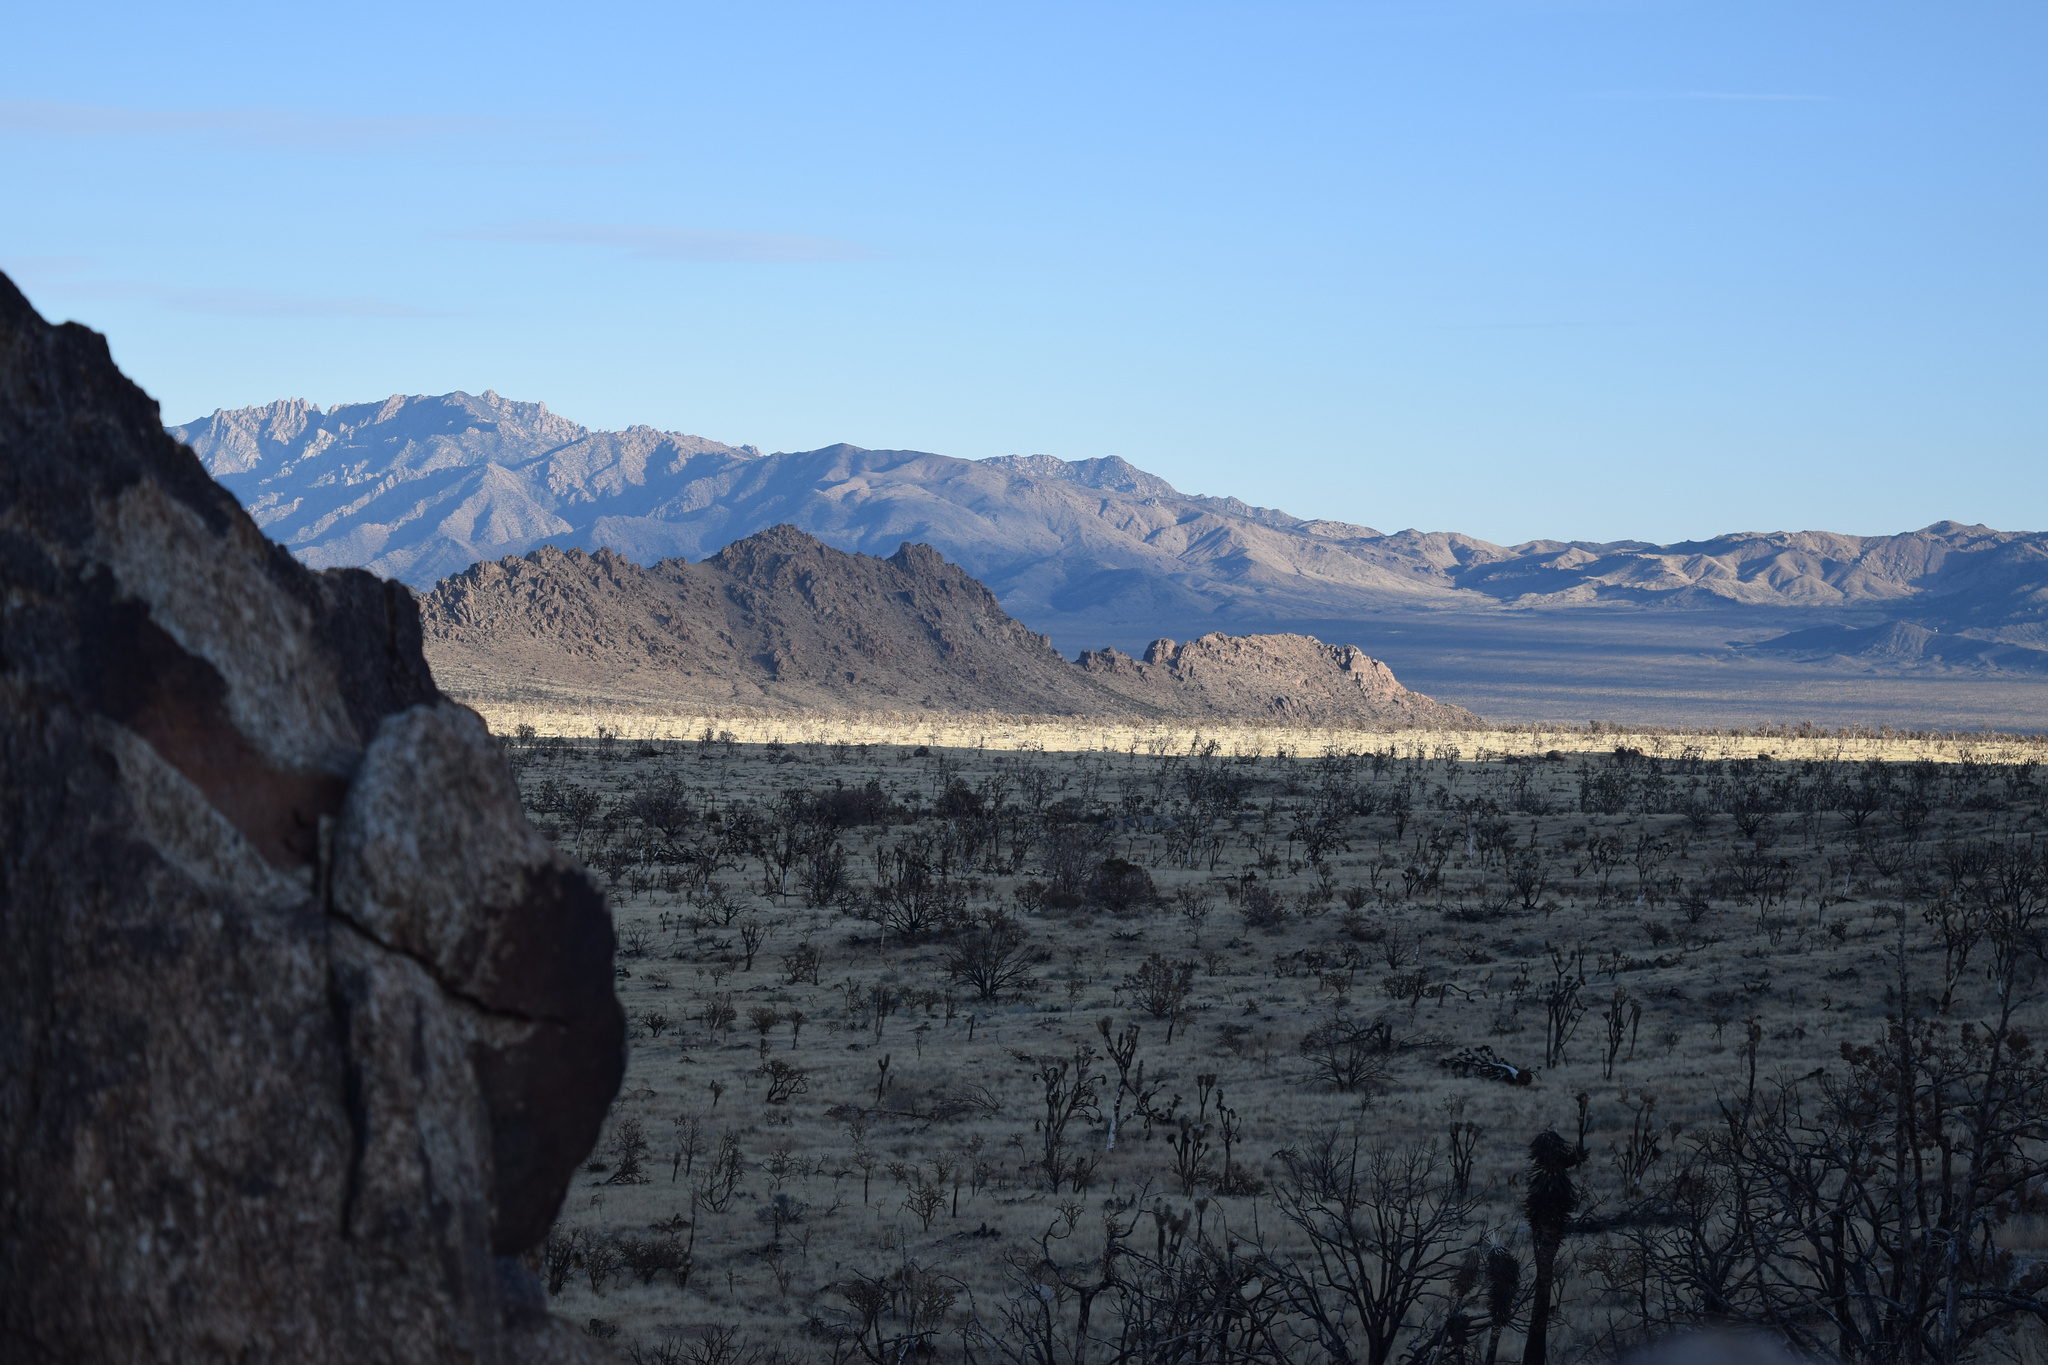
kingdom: Plantae
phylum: Tracheophyta
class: Liliopsida
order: Asparagales
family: Asparagaceae
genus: Yucca
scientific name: Yucca brevifolia
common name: Joshua tree
